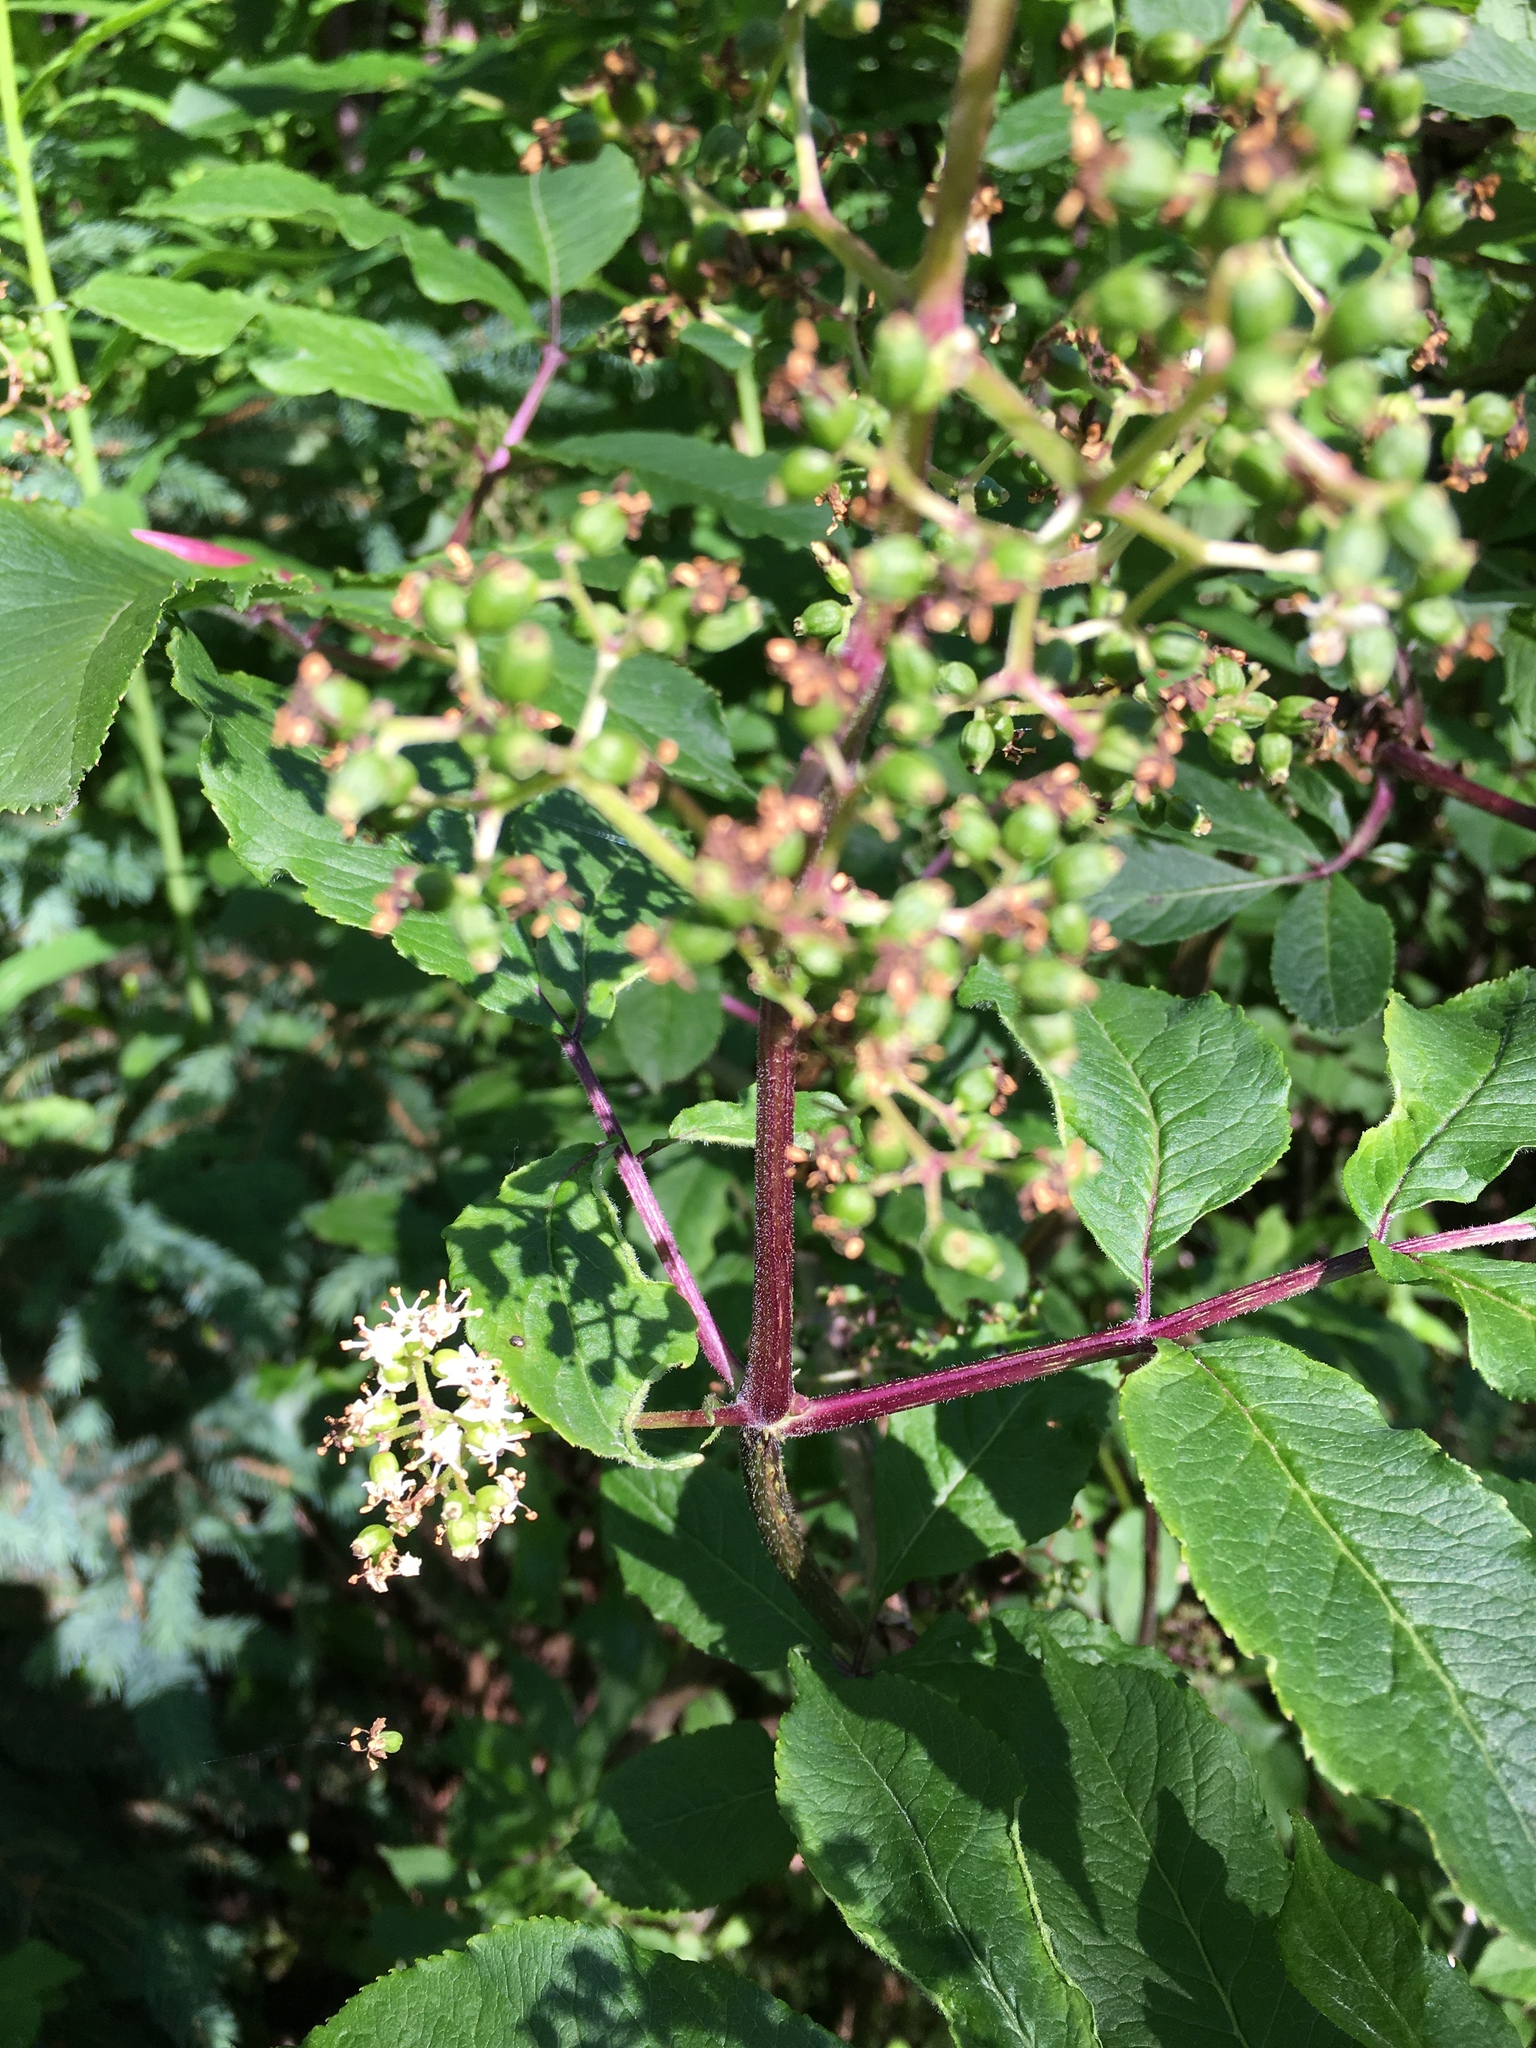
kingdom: Plantae
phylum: Tracheophyta
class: Magnoliopsida
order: Dipsacales
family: Viburnaceae
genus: Sambucus
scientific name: Sambucus racemosa
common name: Red-berried elder
